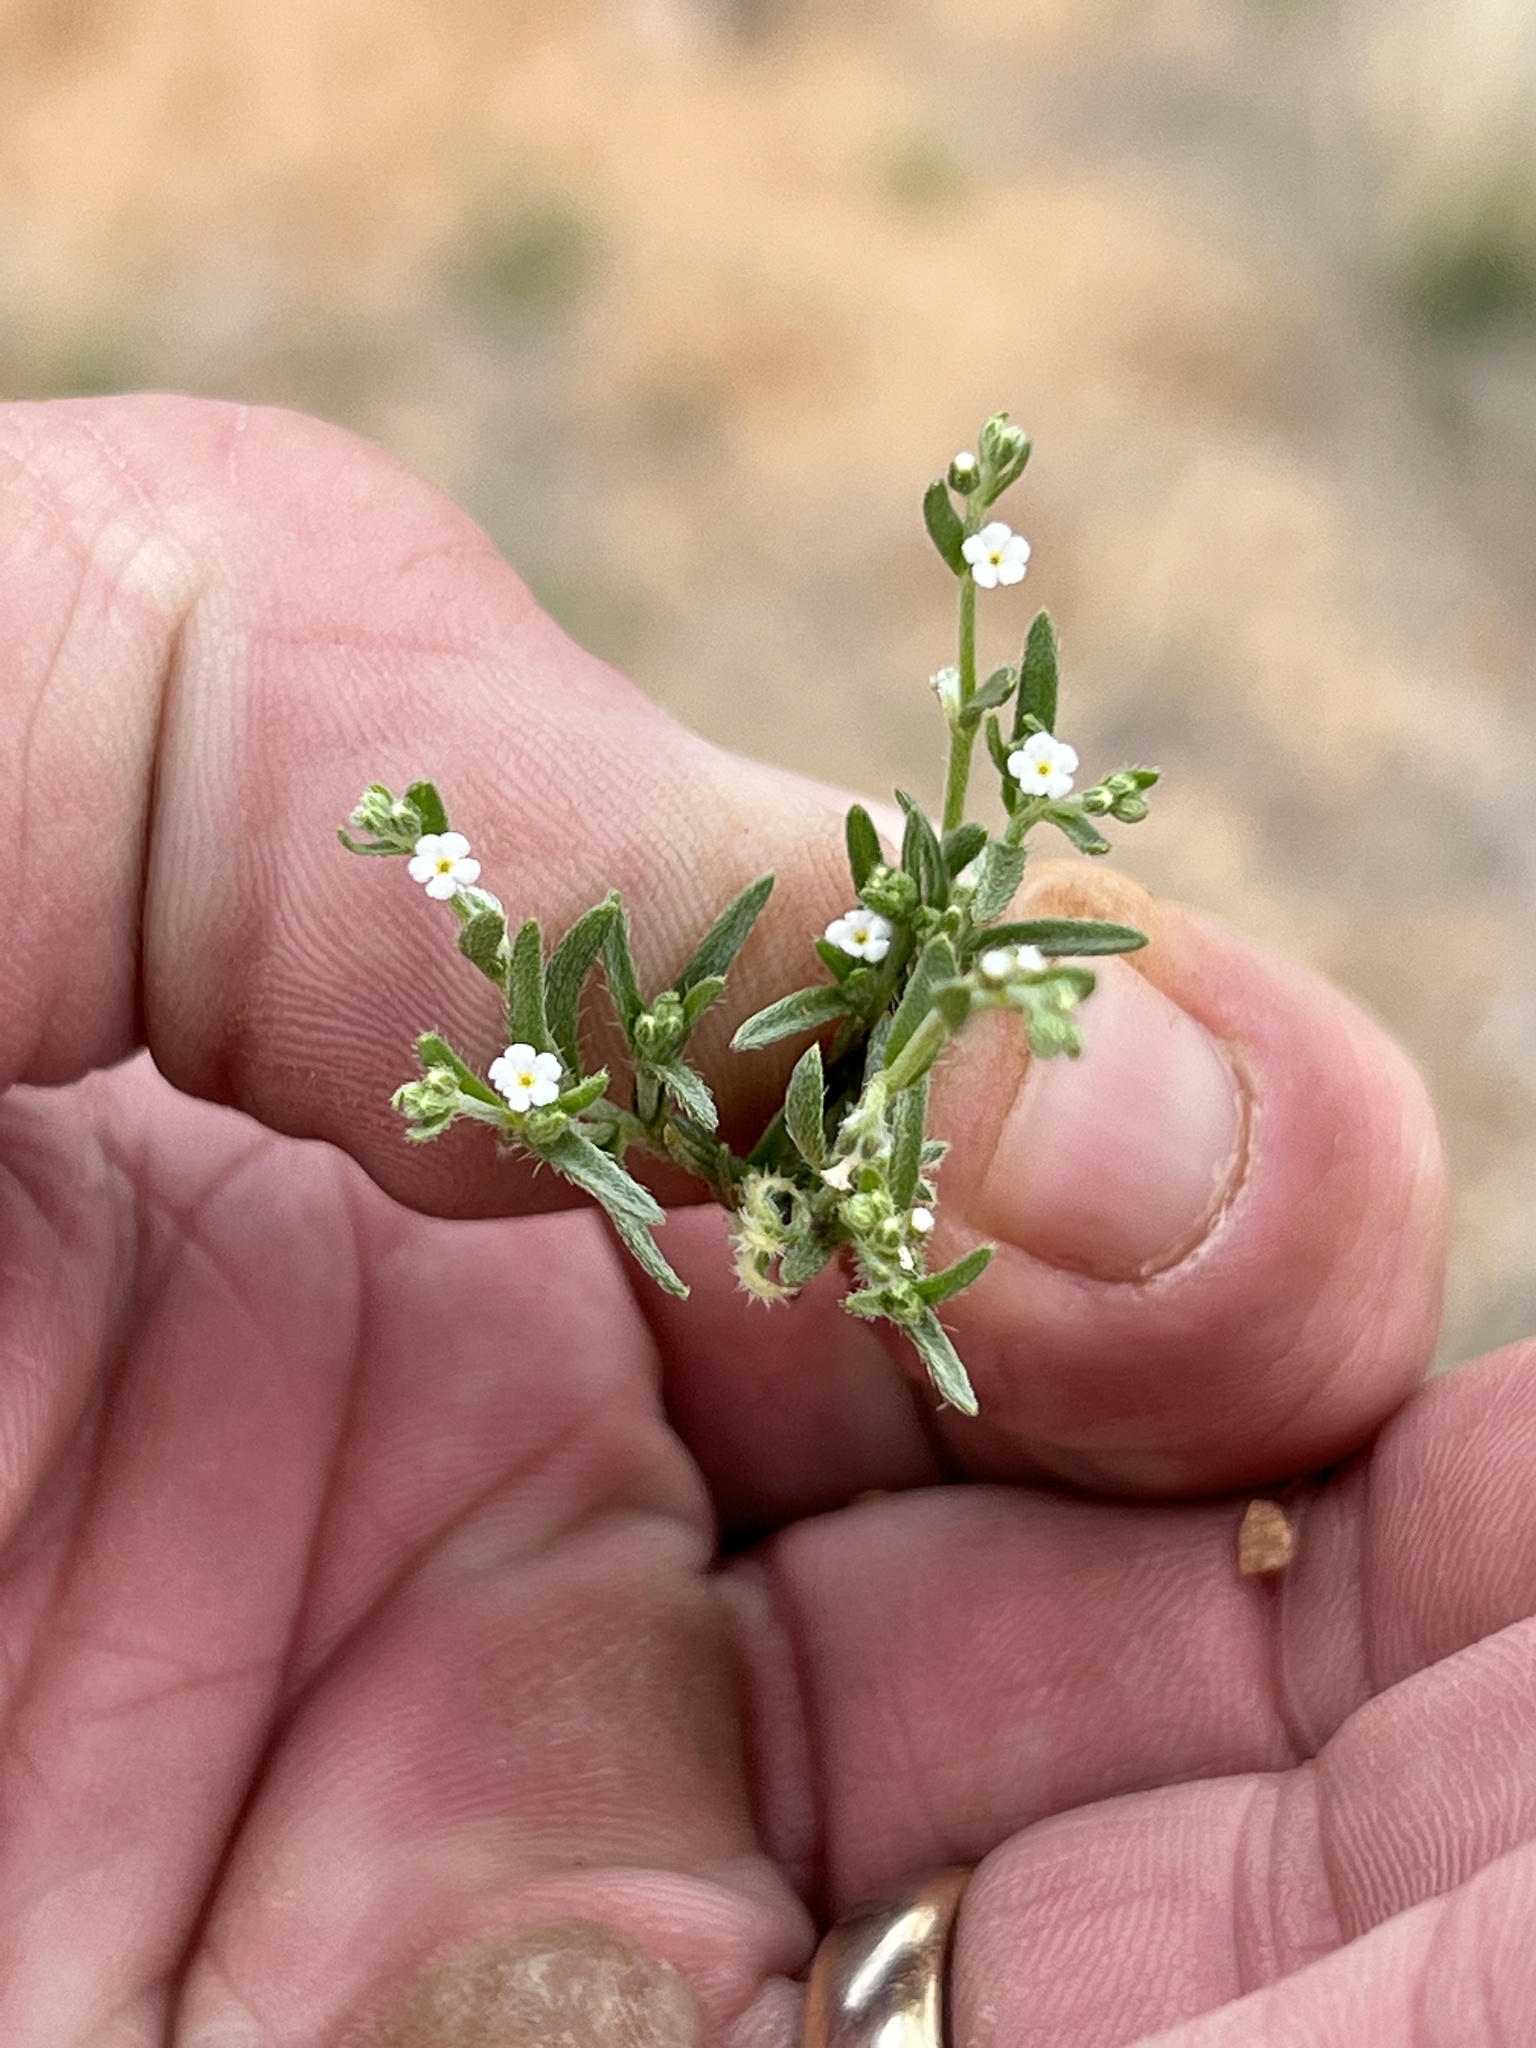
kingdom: Plantae
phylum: Tracheophyta
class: Magnoliopsida
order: Boraginales
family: Boraginaceae
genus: Pectocarya
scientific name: Pectocarya recurvata
